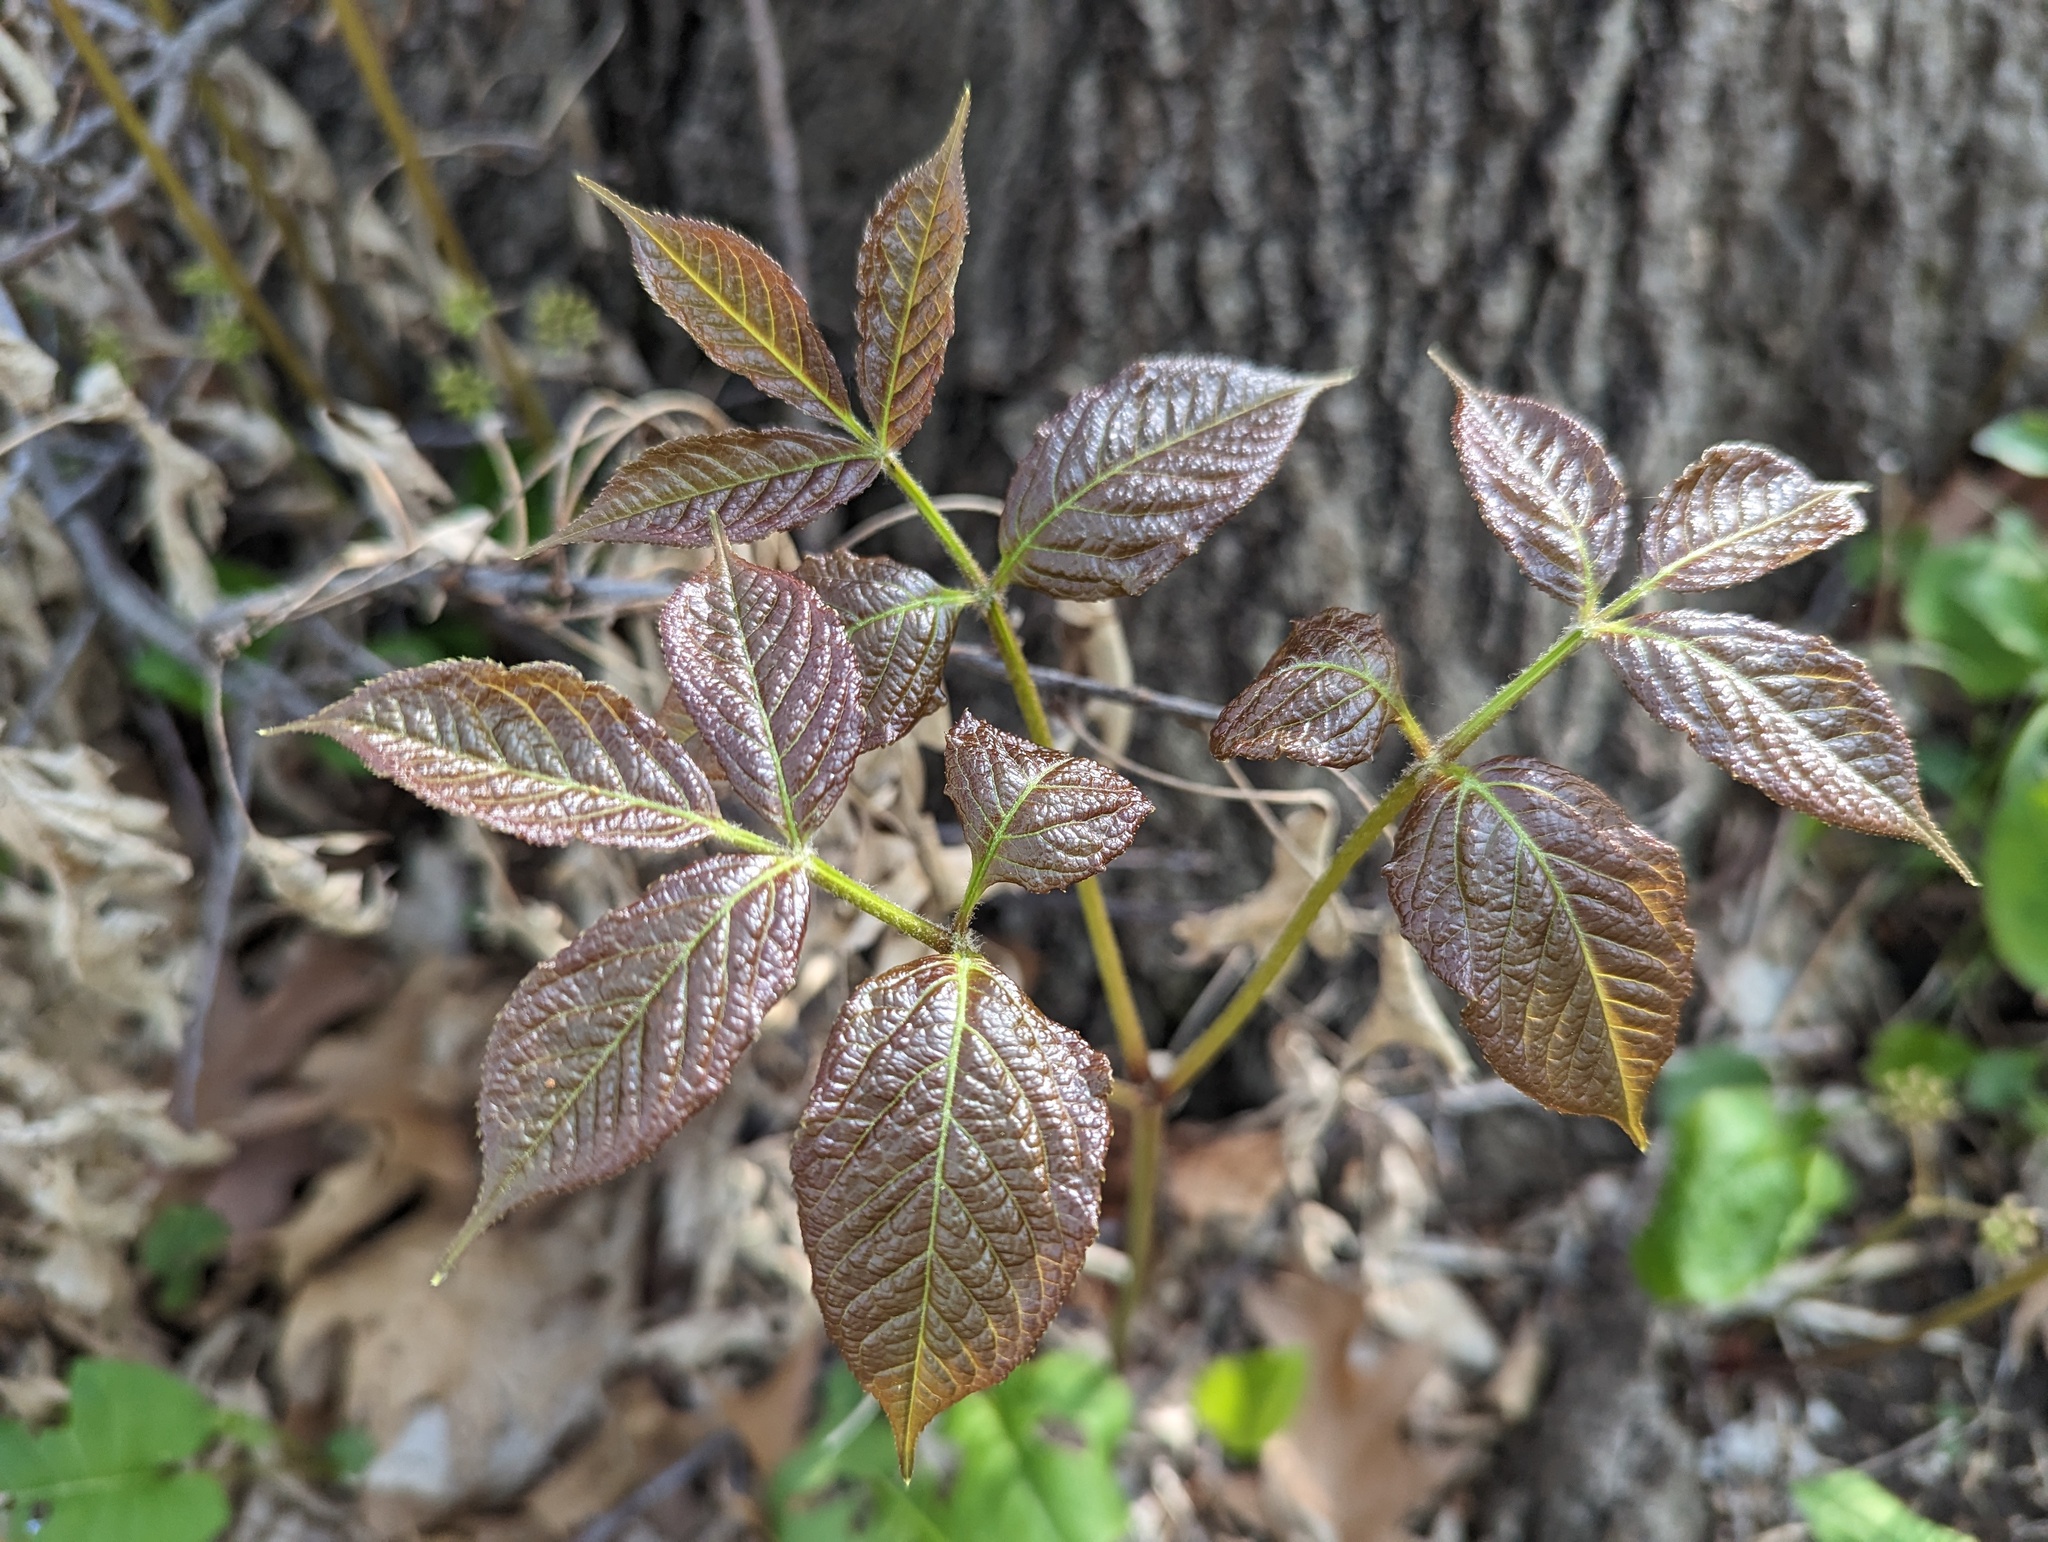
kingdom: Plantae
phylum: Tracheophyta
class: Magnoliopsida
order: Apiales
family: Araliaceae
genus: Aralia
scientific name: Aralia nudicaulis
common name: Wild sarsaparilla
